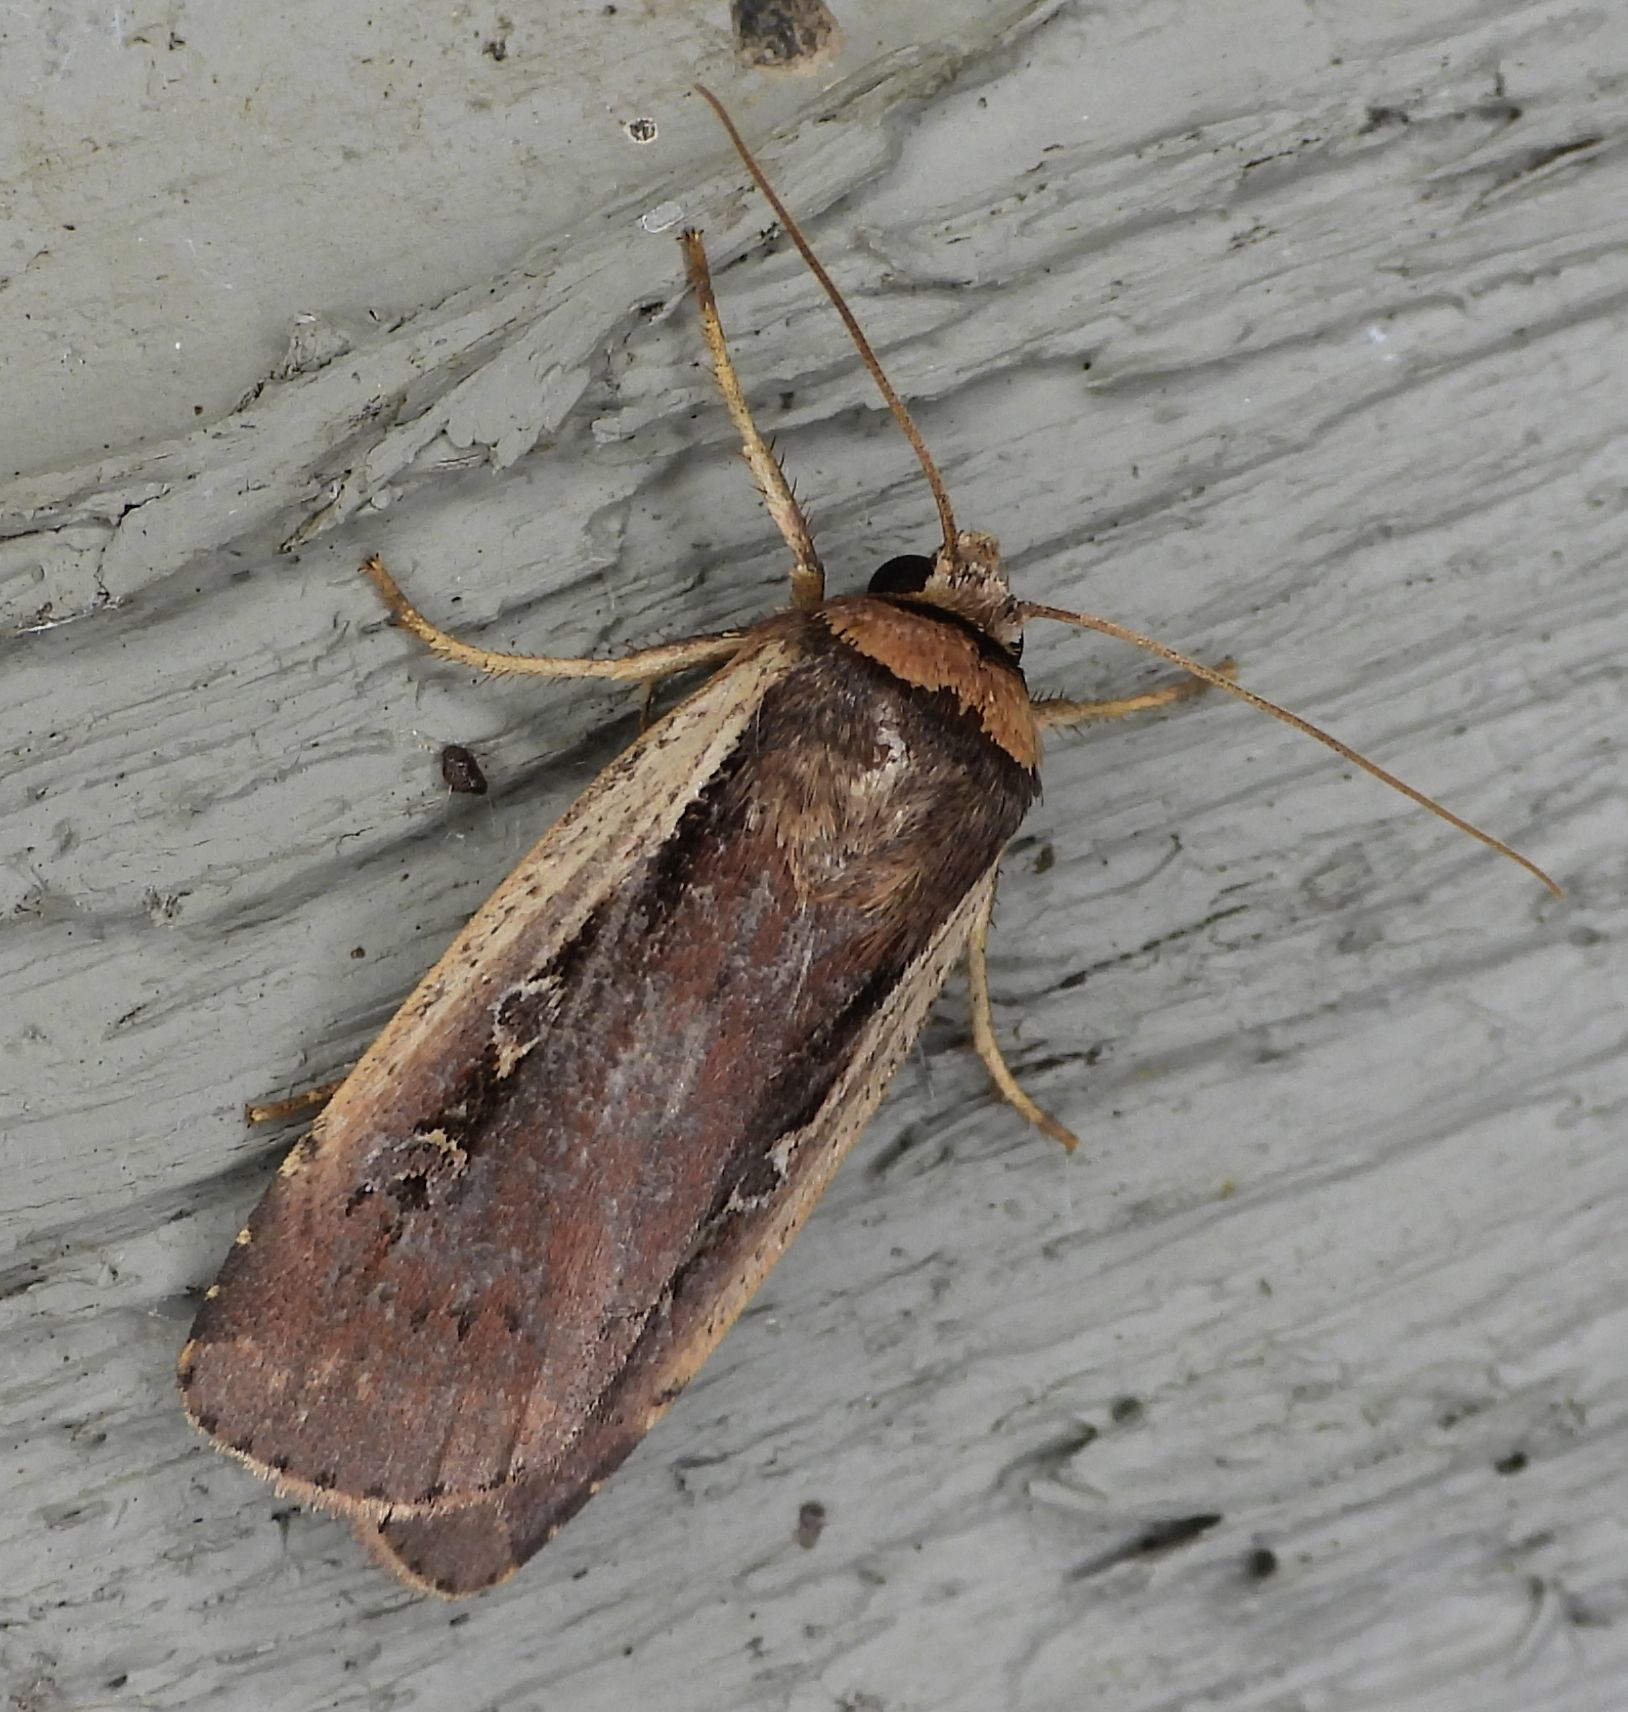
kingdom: Animalia
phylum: Arthropoda
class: Insecta
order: Lepidoptera
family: Noctuidae
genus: Ochropleura
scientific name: Ochropleura implecta
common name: Flame-shouldered dart
